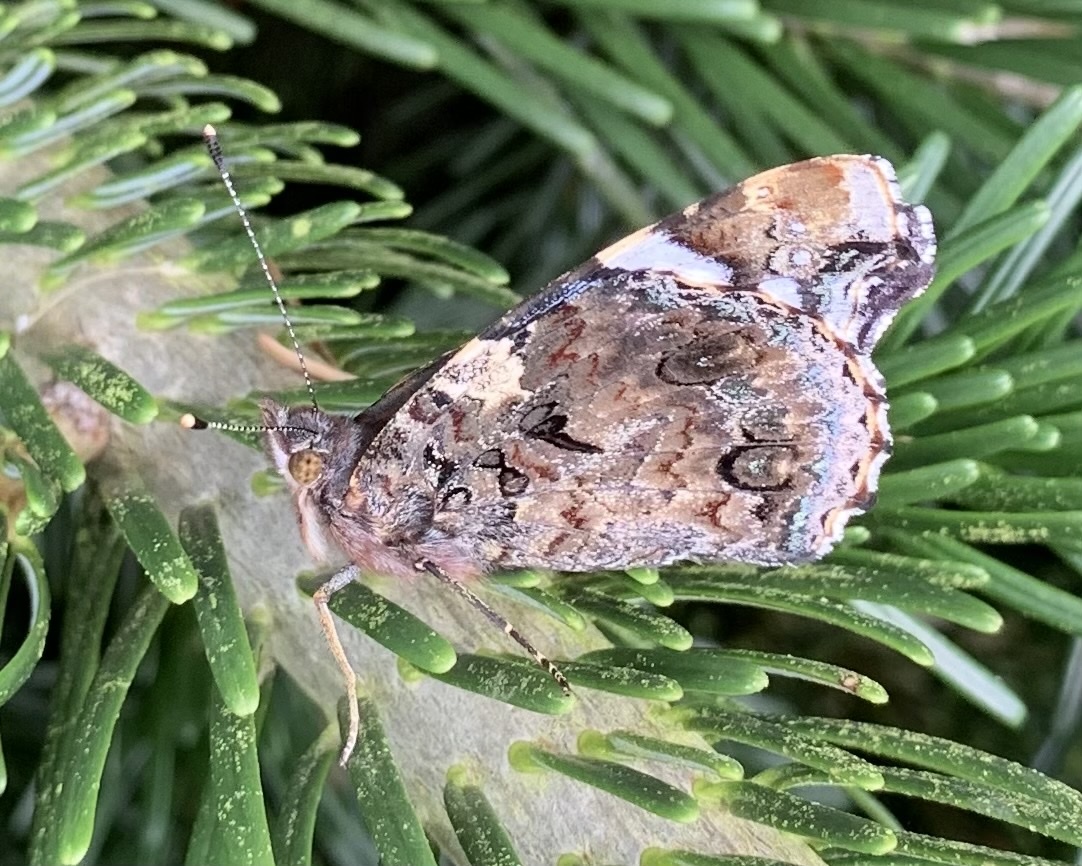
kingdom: Animalia
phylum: Arthropoda
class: Insecta
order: Lepidoptera
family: Nymphalidae
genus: Vanessa
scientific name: Vanessa atalanta
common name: Red admiral
